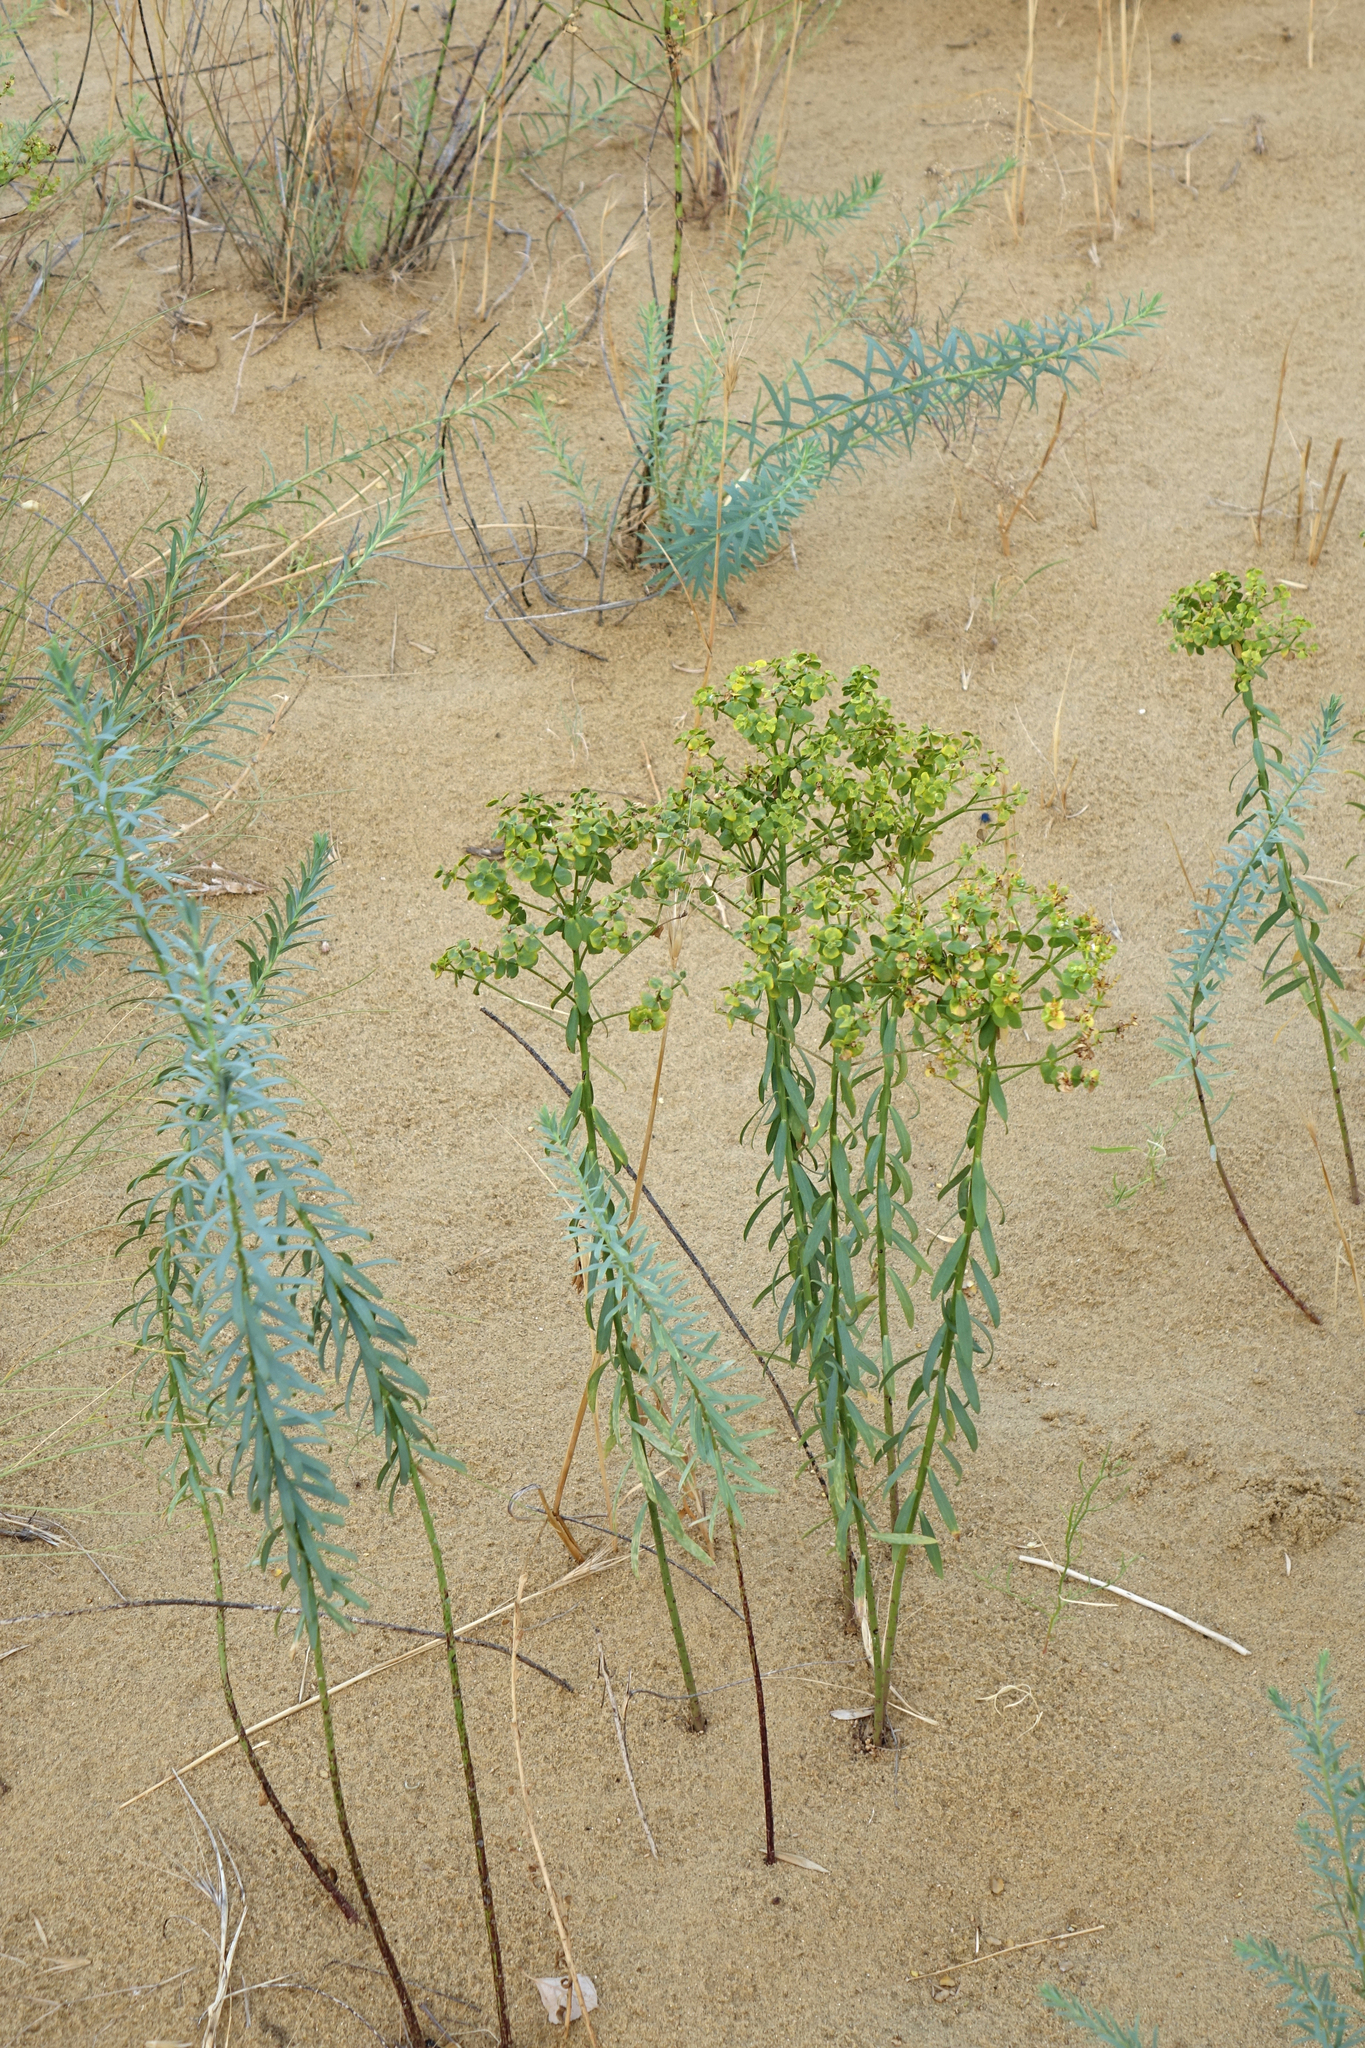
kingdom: Plantae
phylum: Tracheophyta
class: Magnoliopsida
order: Malpighiales
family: Euphorbiaceae
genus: Euphorbia
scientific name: Euphorbia seguieriana
